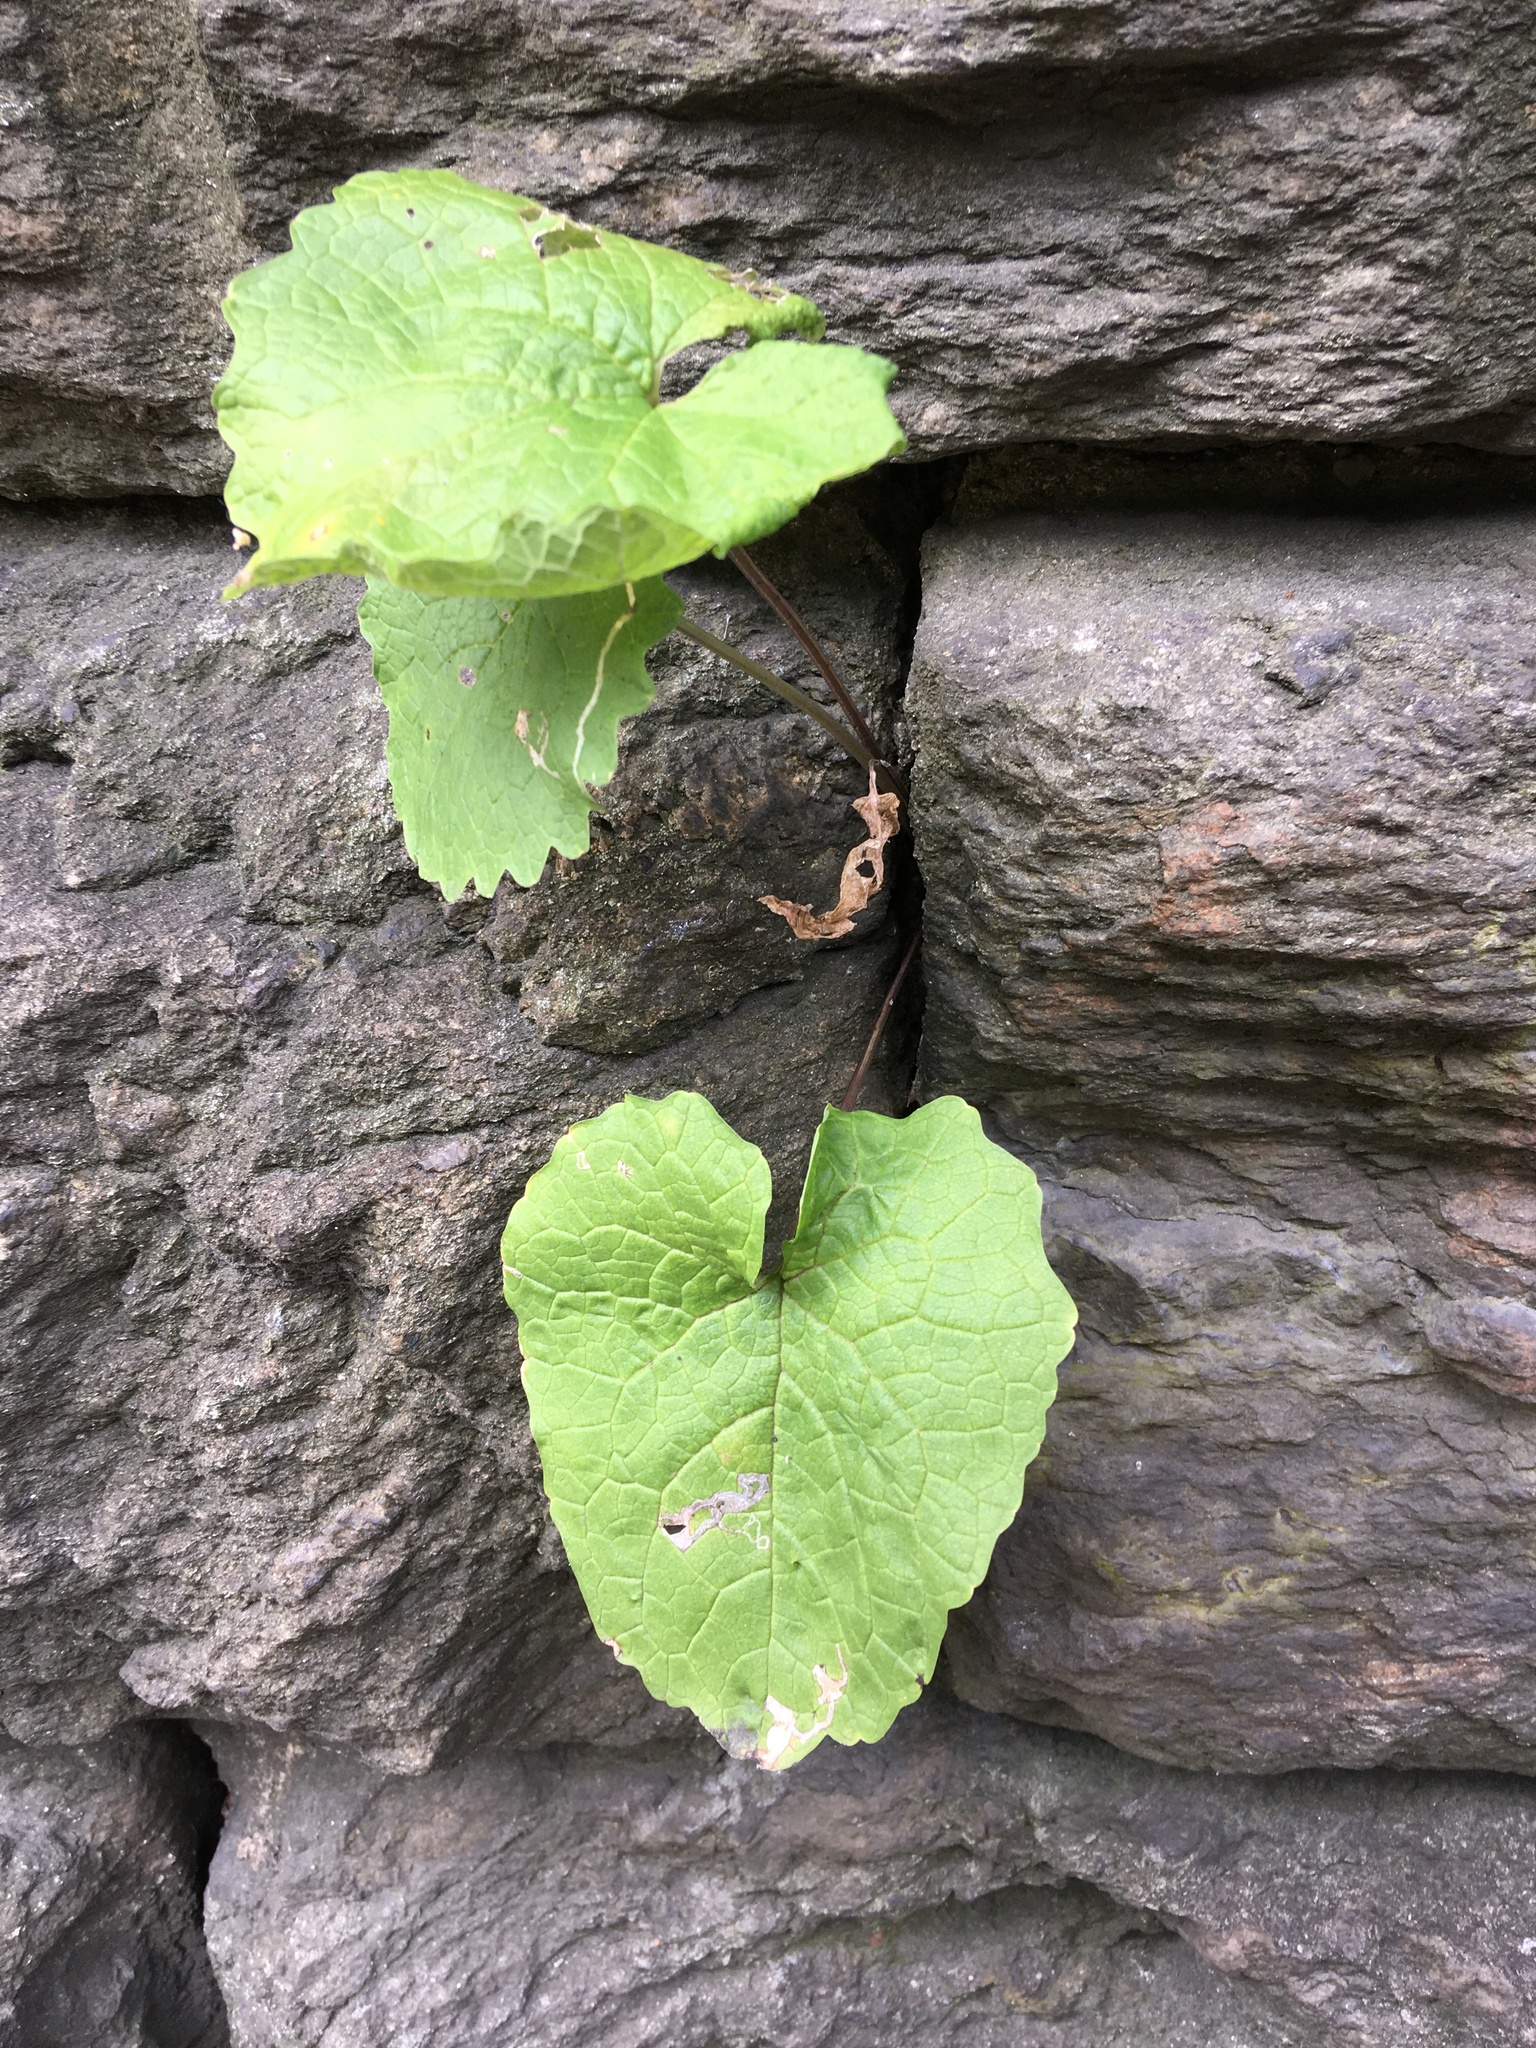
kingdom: Plantae
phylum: Tracheophyta
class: Magnoliopsida
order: Brassicales
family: Brassicaceae
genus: Alliaria
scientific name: Alliaria petiolata
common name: Garlic mustard
